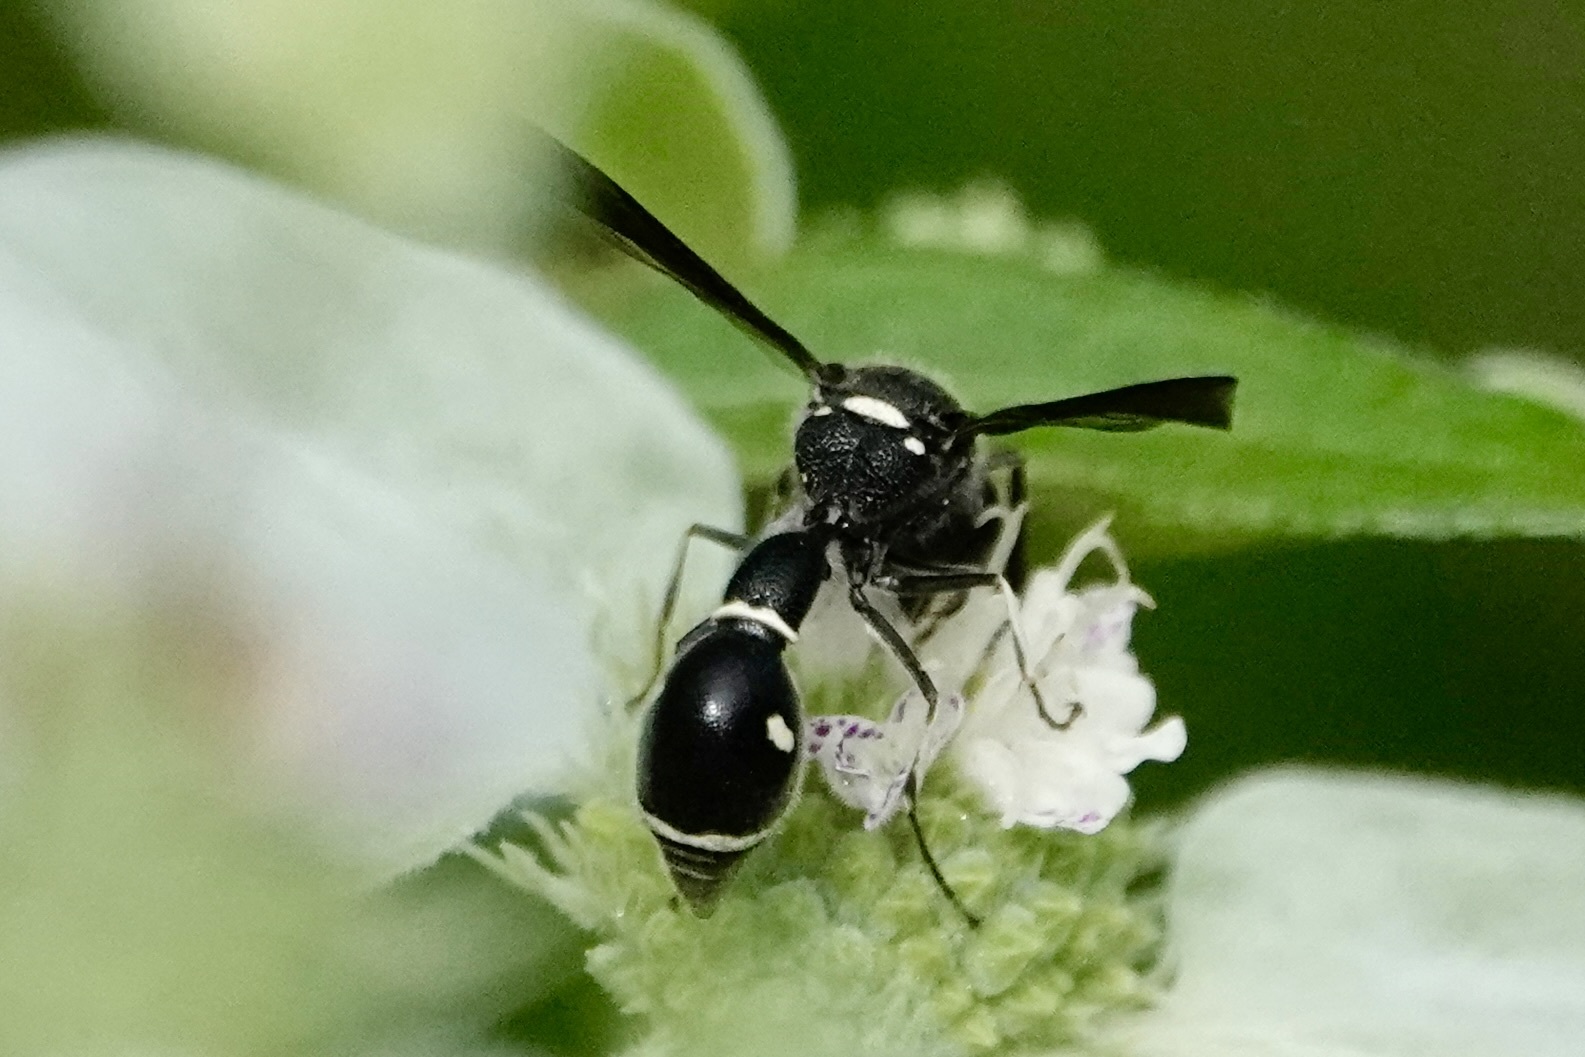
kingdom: Animalia
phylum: Arthropoda
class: Insecta
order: Hymenoptera
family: Vespidae
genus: Eumenes
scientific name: Eumenes fraternus
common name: Fraternal potter wasp
